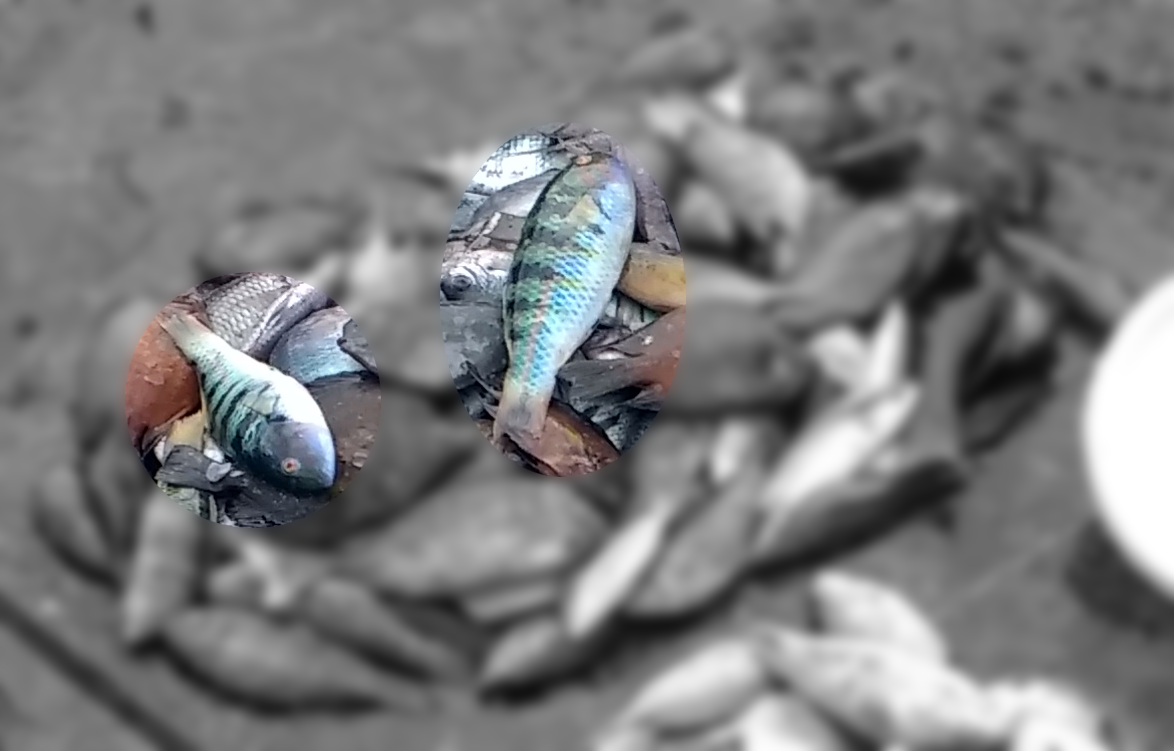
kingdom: Animalia
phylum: Chordata
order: Perciformes
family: Labridae
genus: Thalassoma
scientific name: Thalassoma hardwicke
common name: Sixbar wrasse
